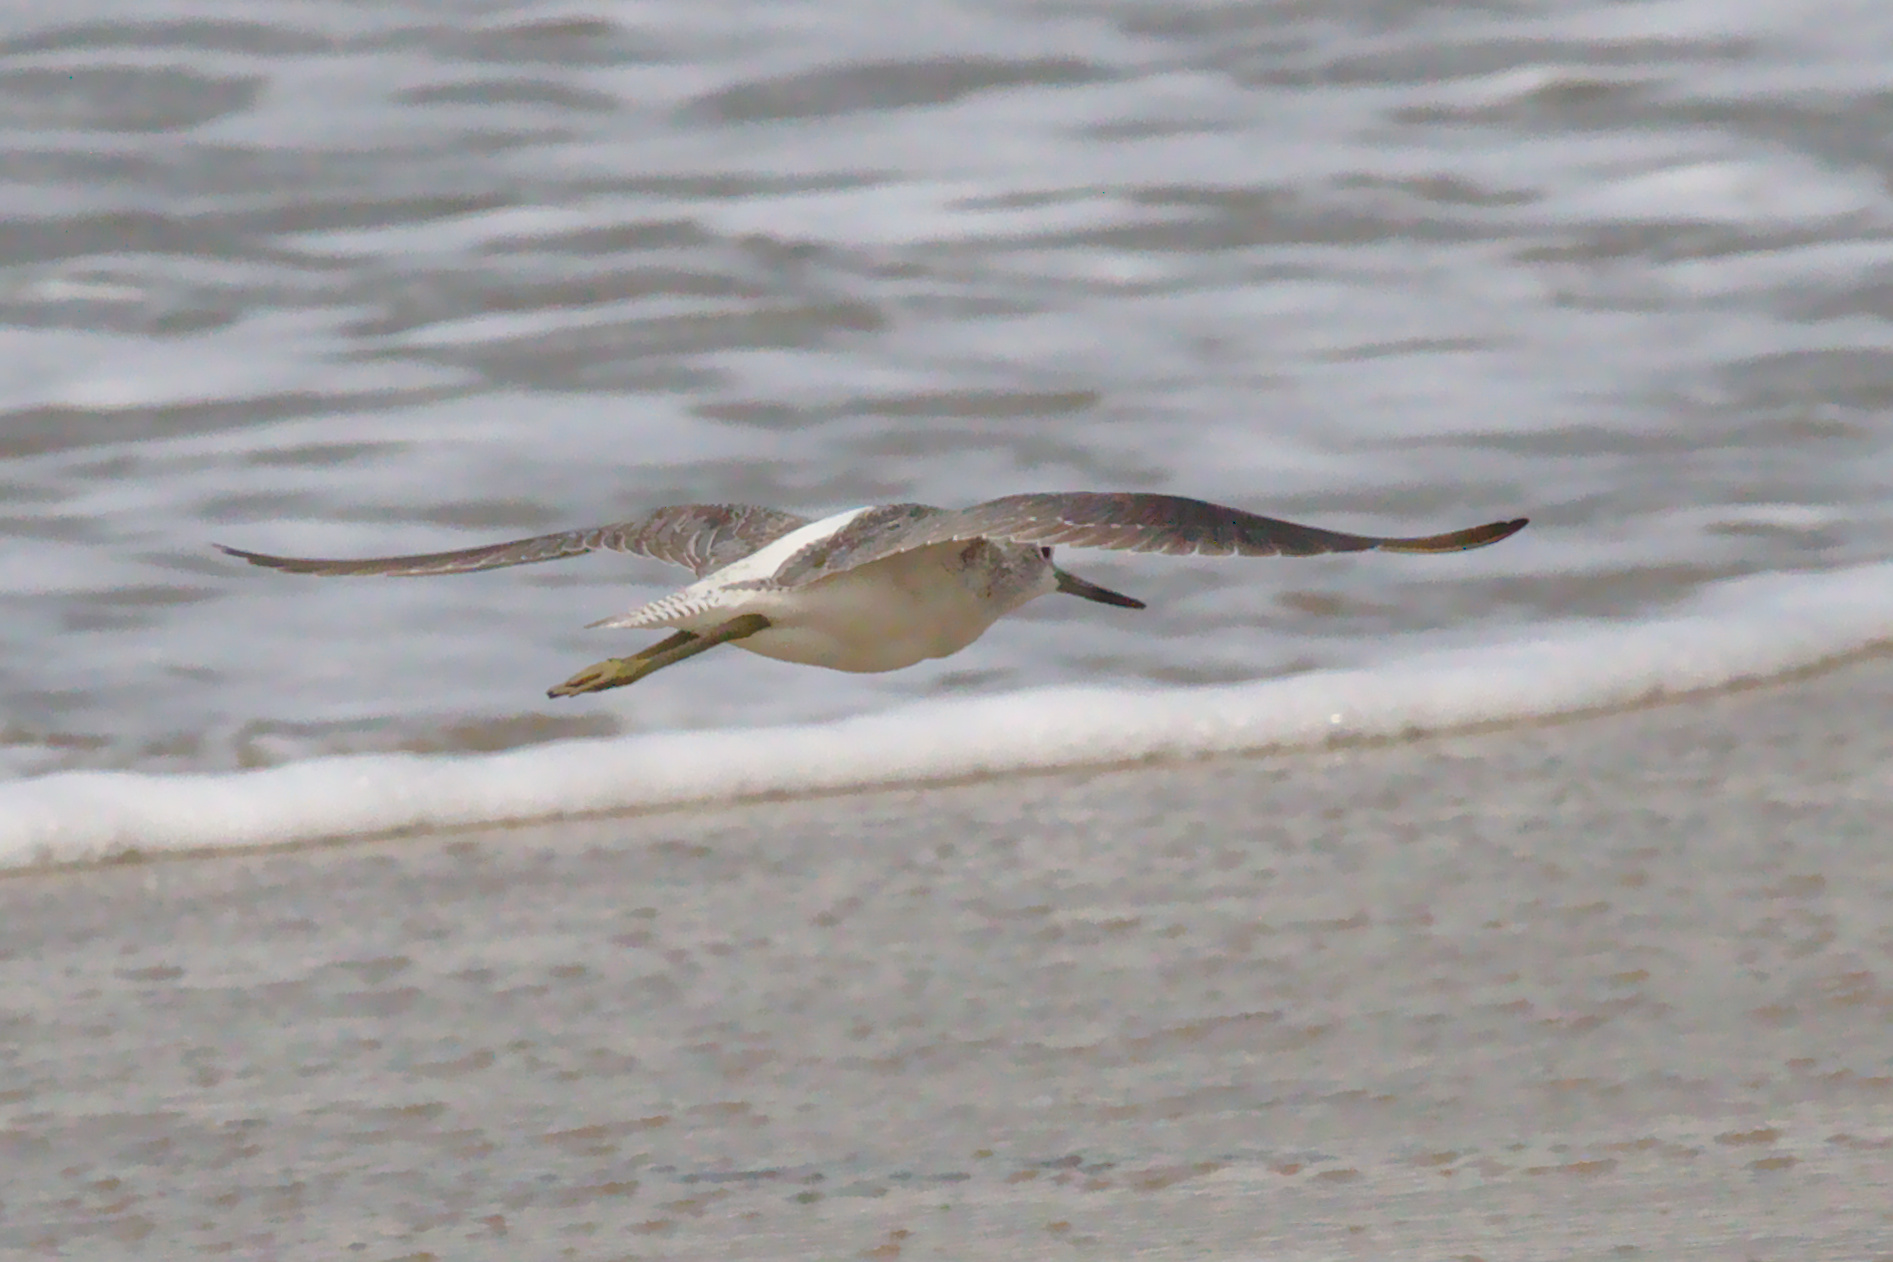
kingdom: Animalia
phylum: Chordata
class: Aves
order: Charadriiformes
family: Scolopacidae
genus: Tringa
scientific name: Tringa nebularia
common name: Common greenshank
